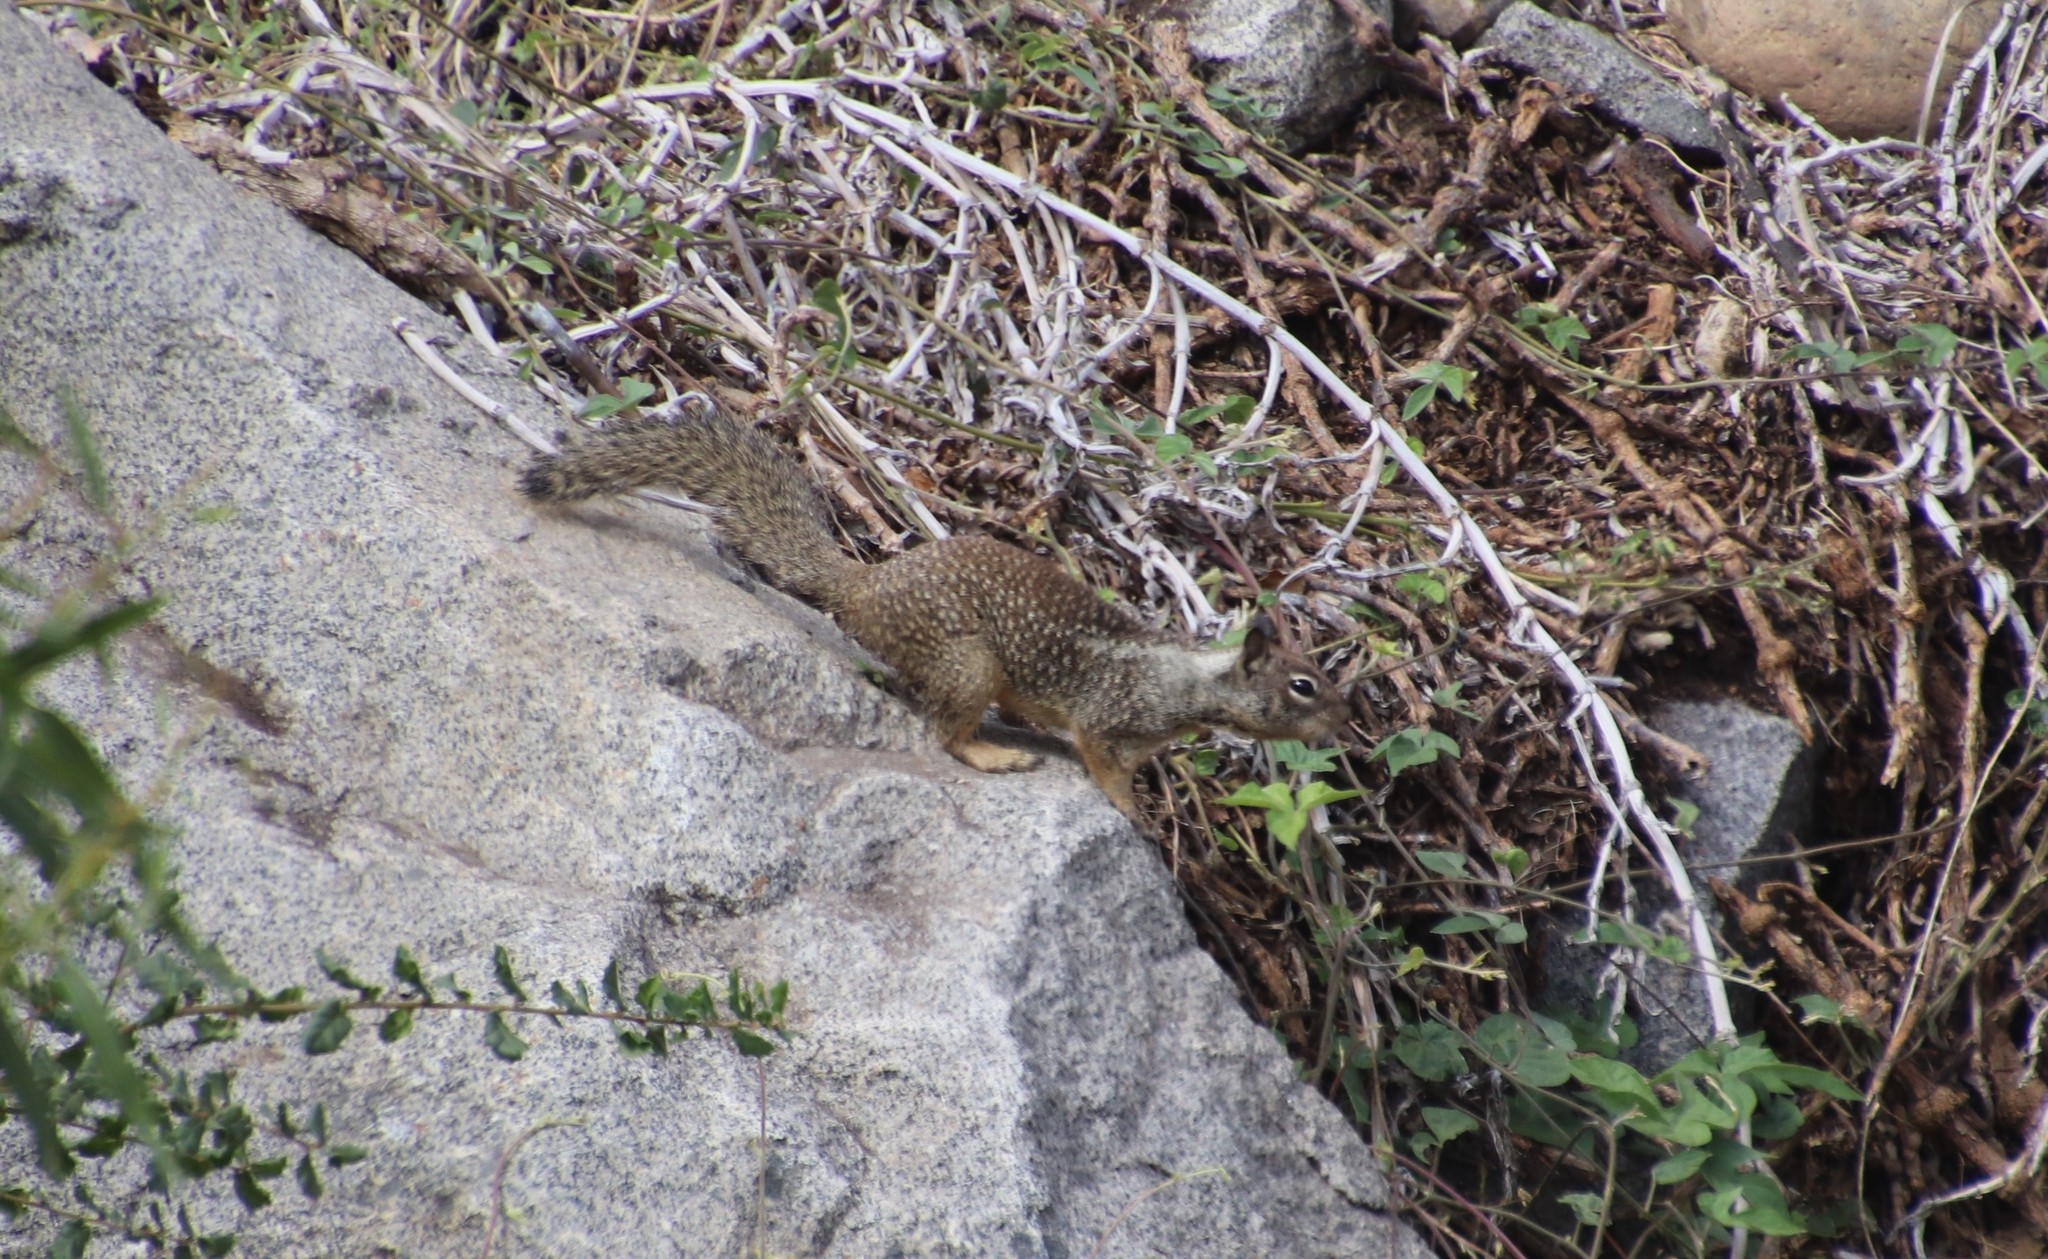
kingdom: Animalia
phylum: Chordata
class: Mammalia
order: Rodentia
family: Sciuridae
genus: Otospermophilus
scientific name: Otospermophilus beecheyi
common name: California ground squirrel
